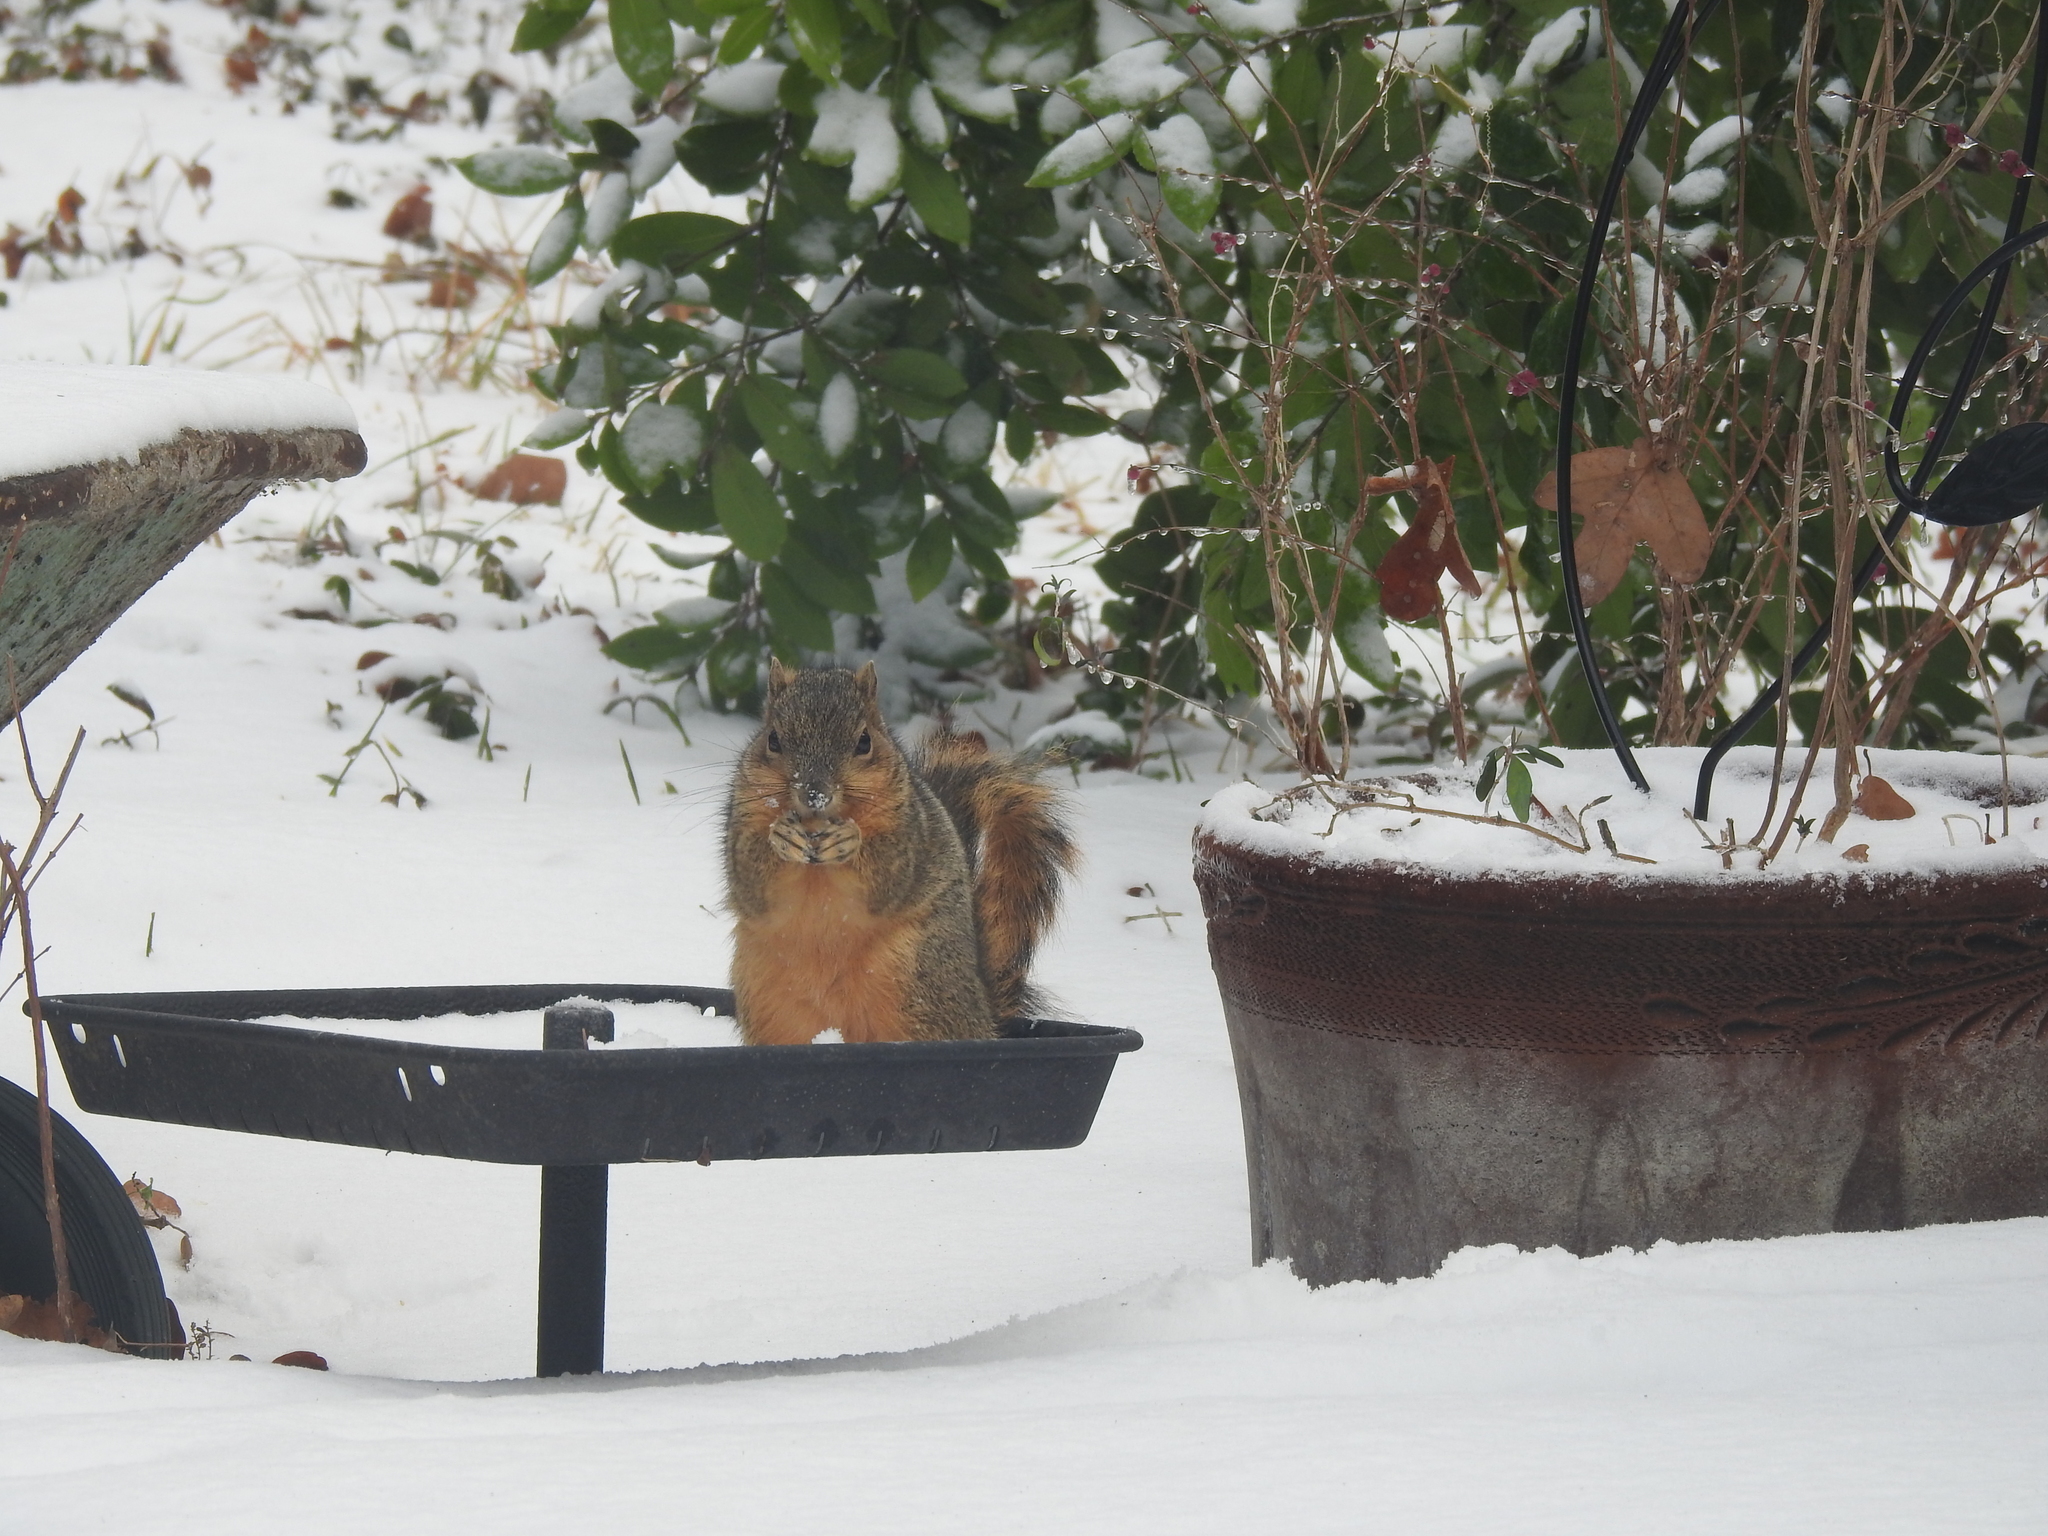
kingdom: Animalia
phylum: Chordata
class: Mammalia
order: Rodentia
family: Sciuridae
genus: Sciurus
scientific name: Sciurus niger
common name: Fox squirrel
